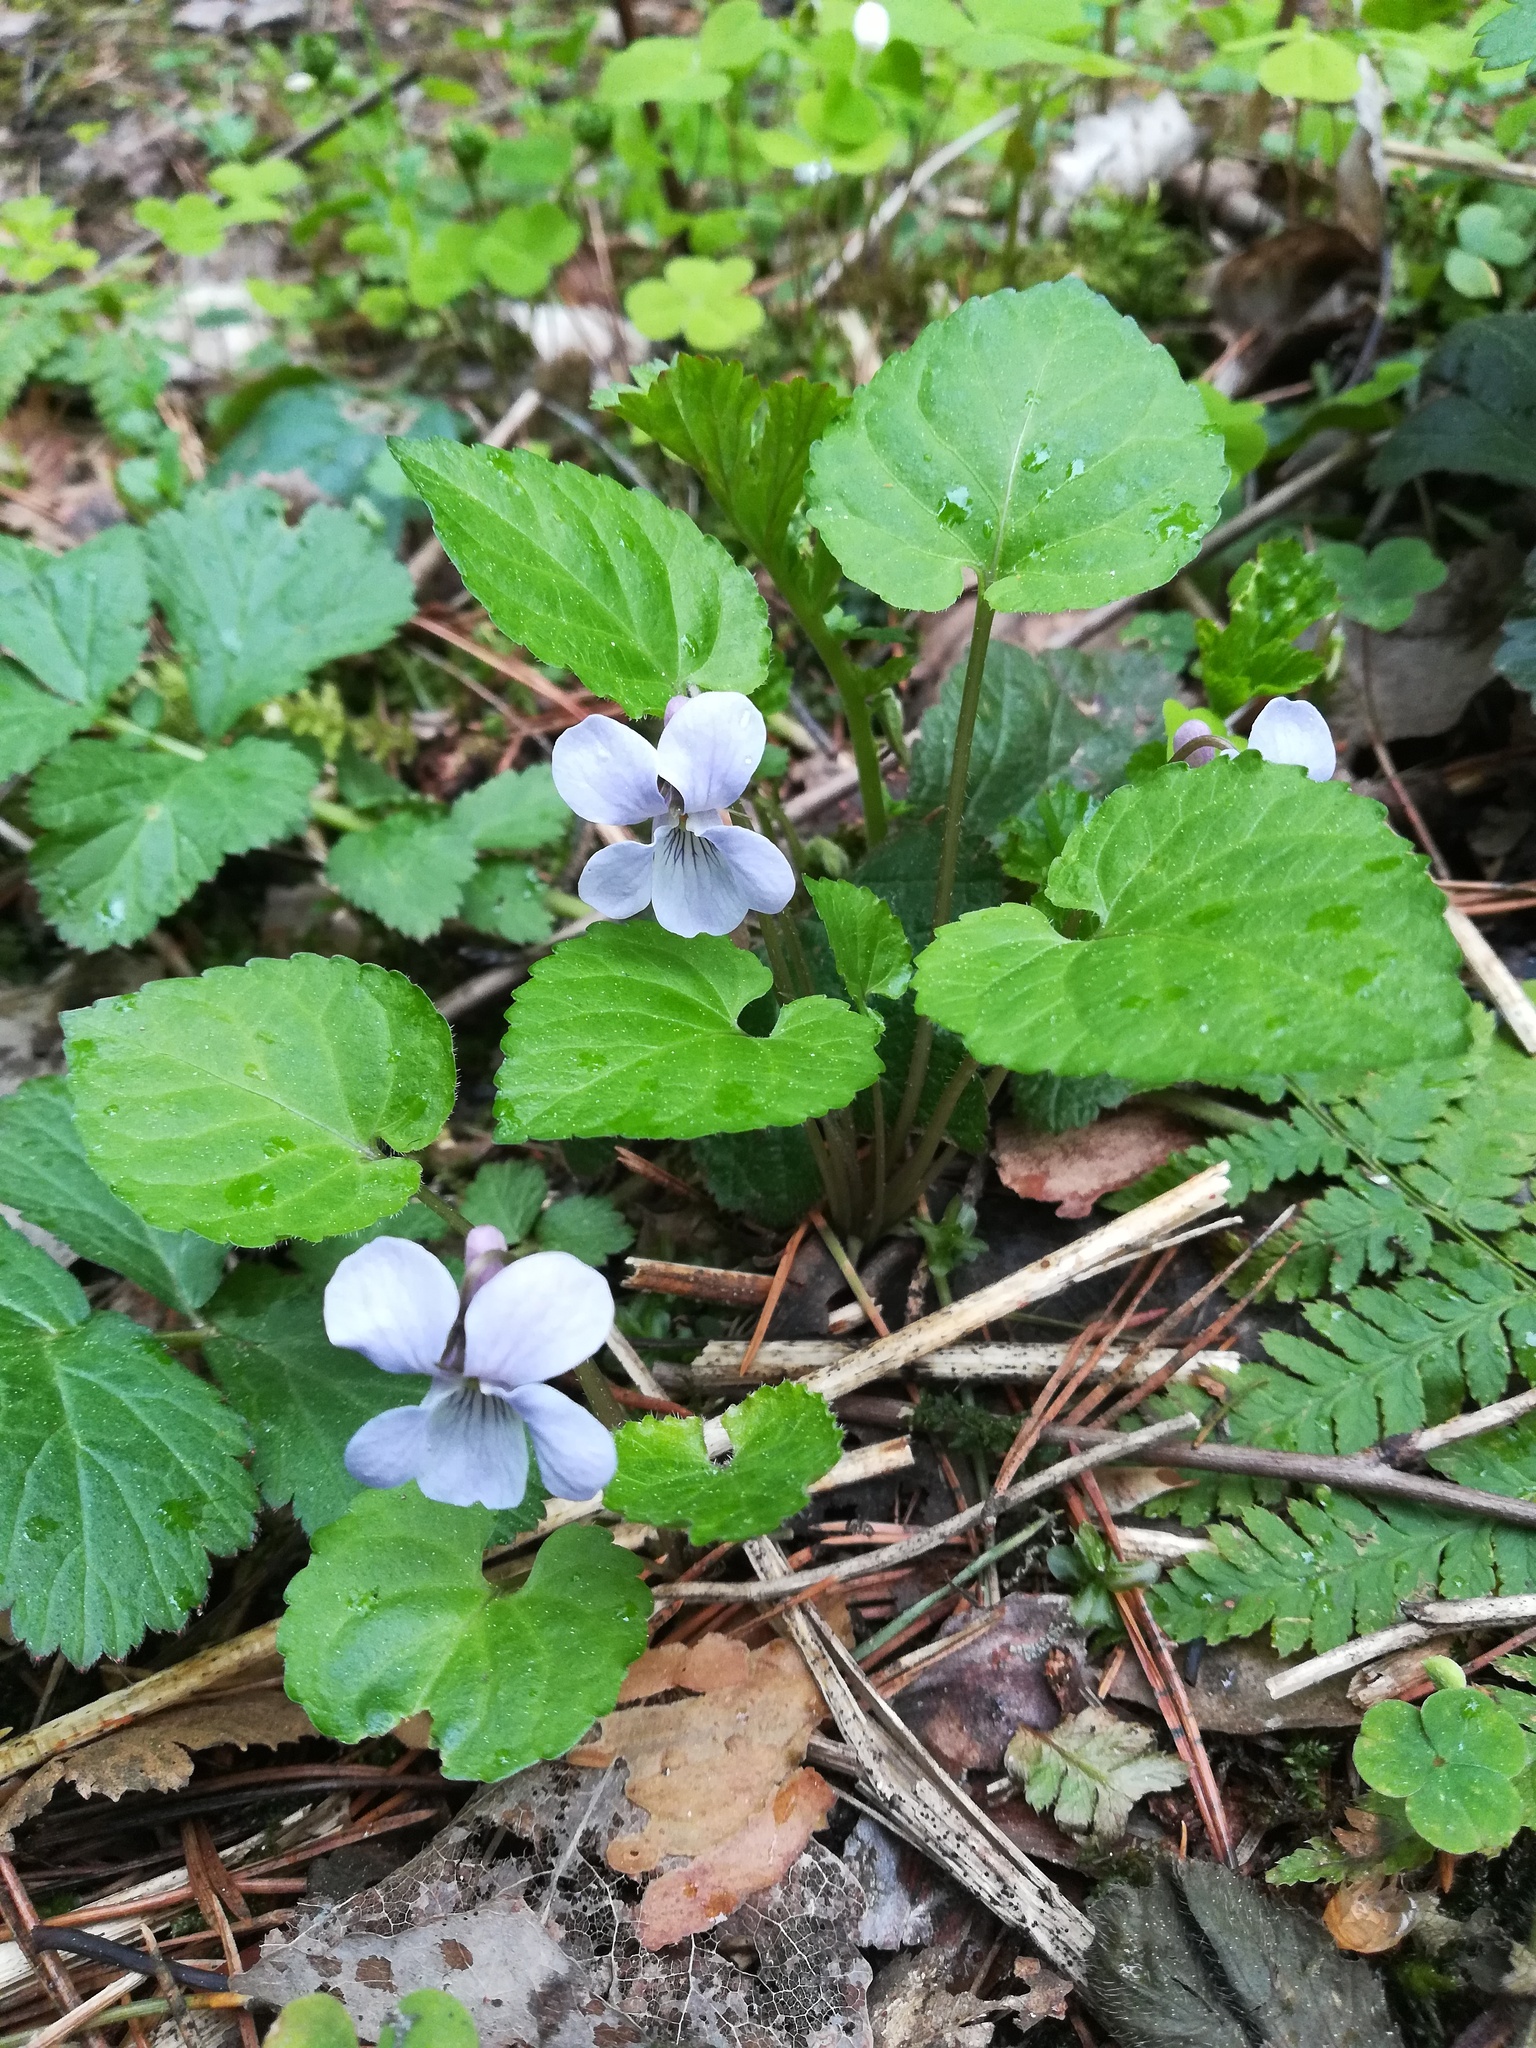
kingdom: Plantae
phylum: Tracheophyta
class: Magnoliopsida
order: Malpighiales
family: Violaceae
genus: Viola
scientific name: Viola selkirkii
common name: Selkirk's violet
